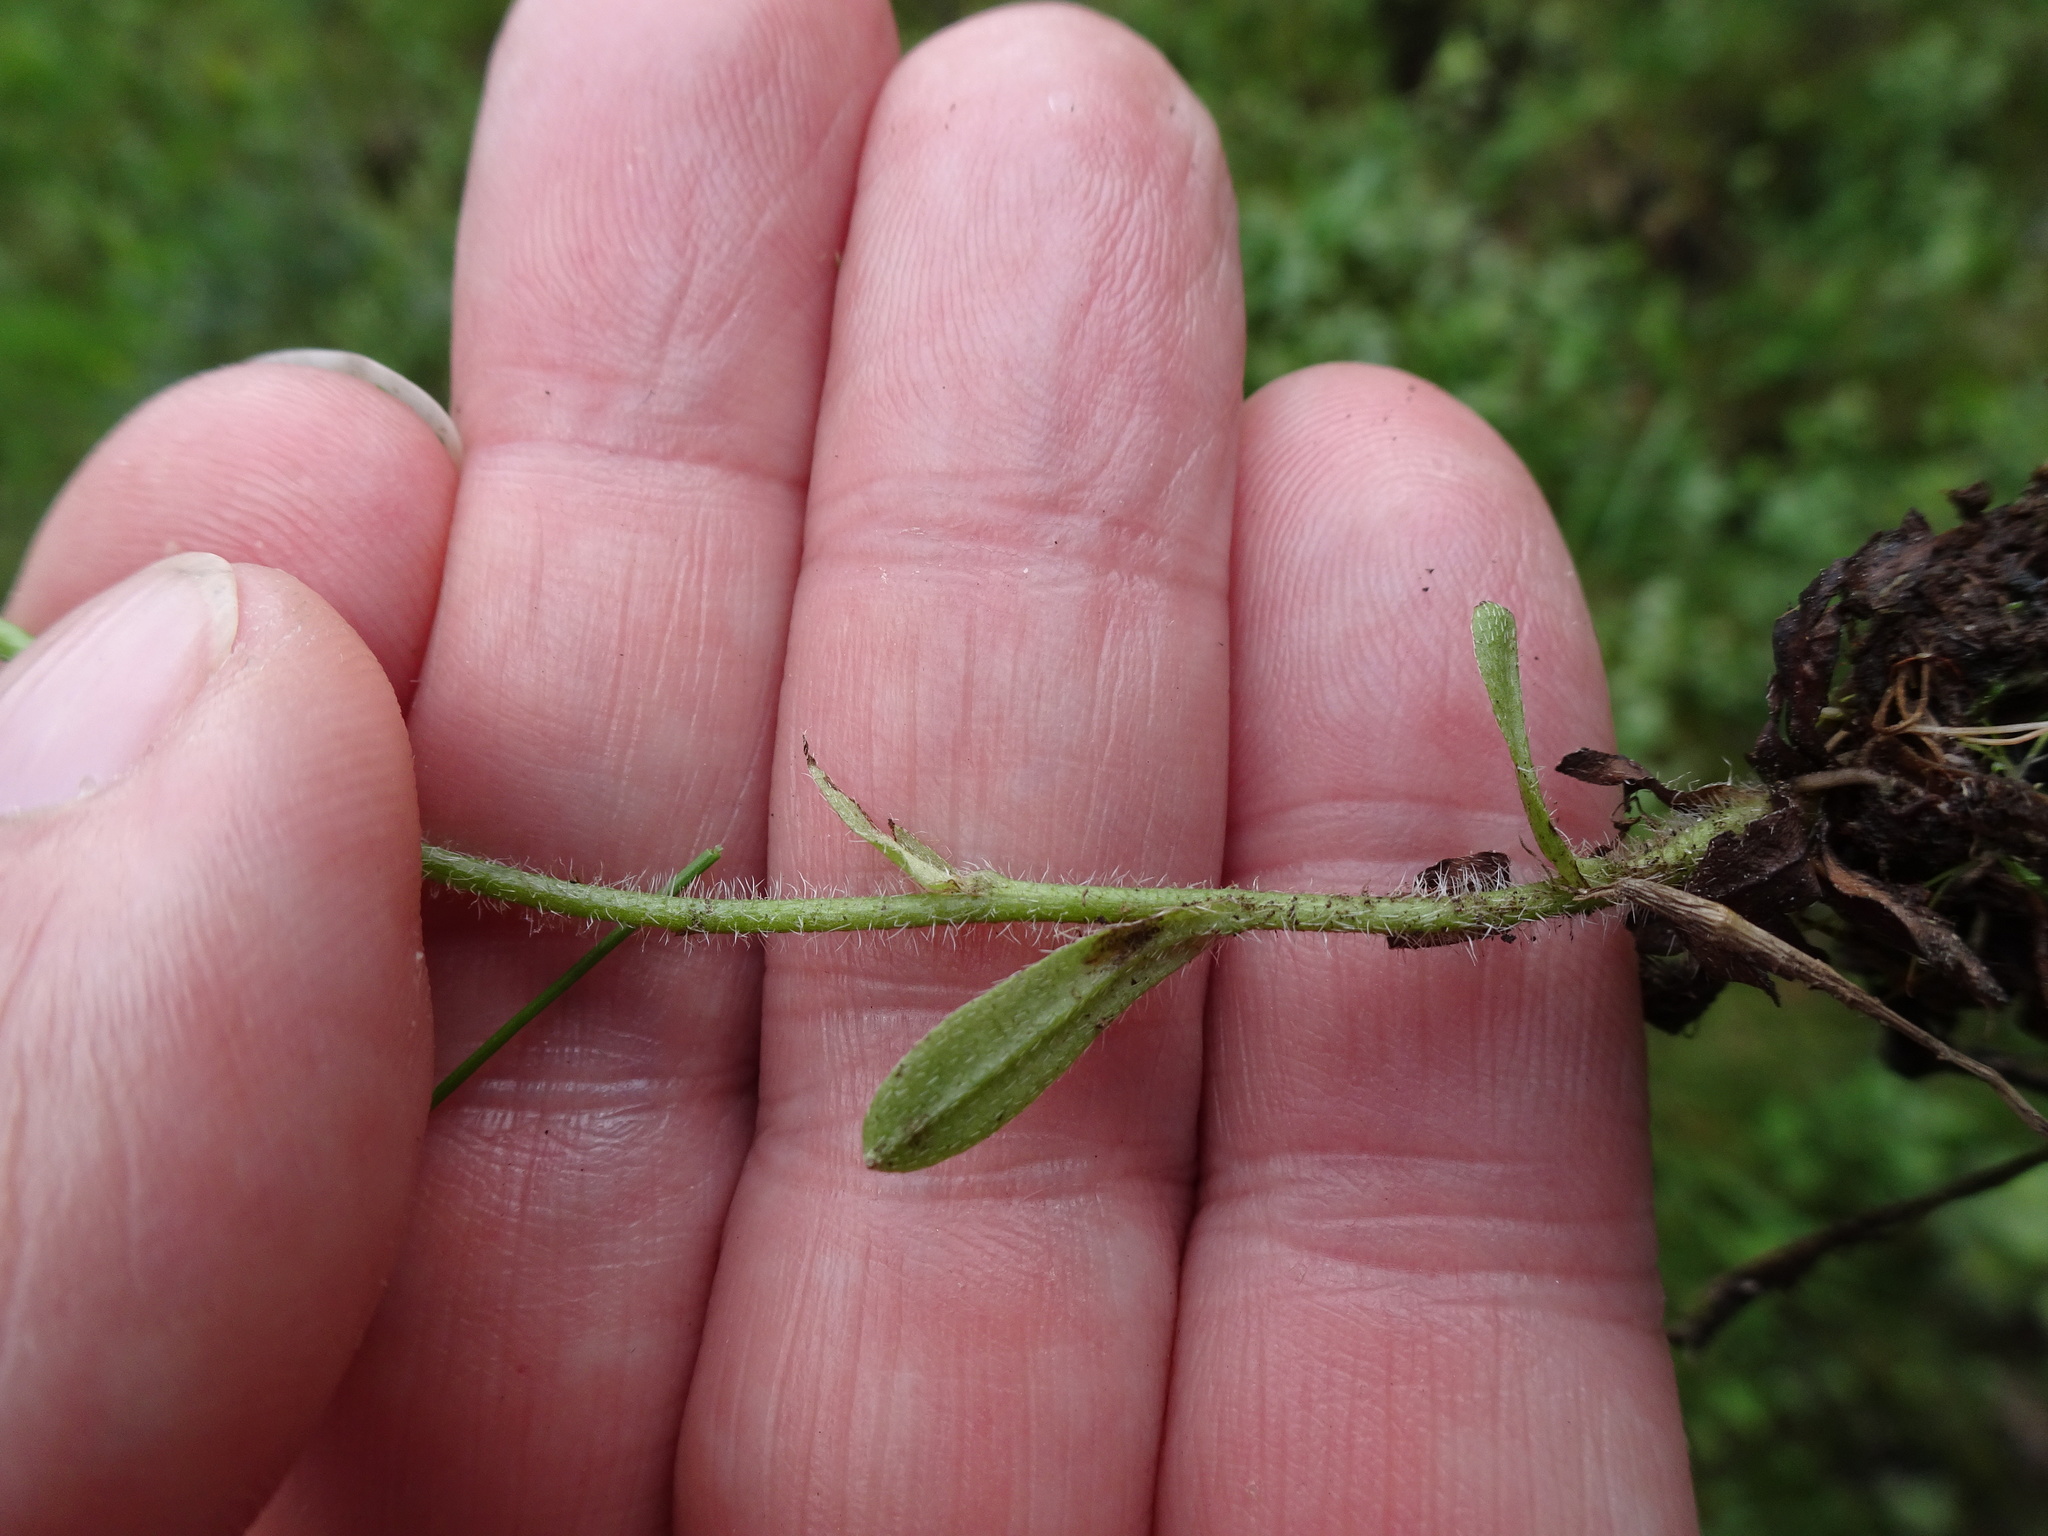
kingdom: Plantae
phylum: Tracheophyta
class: Magnoliopsida
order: Boraginales
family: Boraginaceae
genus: Myosotis
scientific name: Myosotis secunda
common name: Creeping forget-me-not
